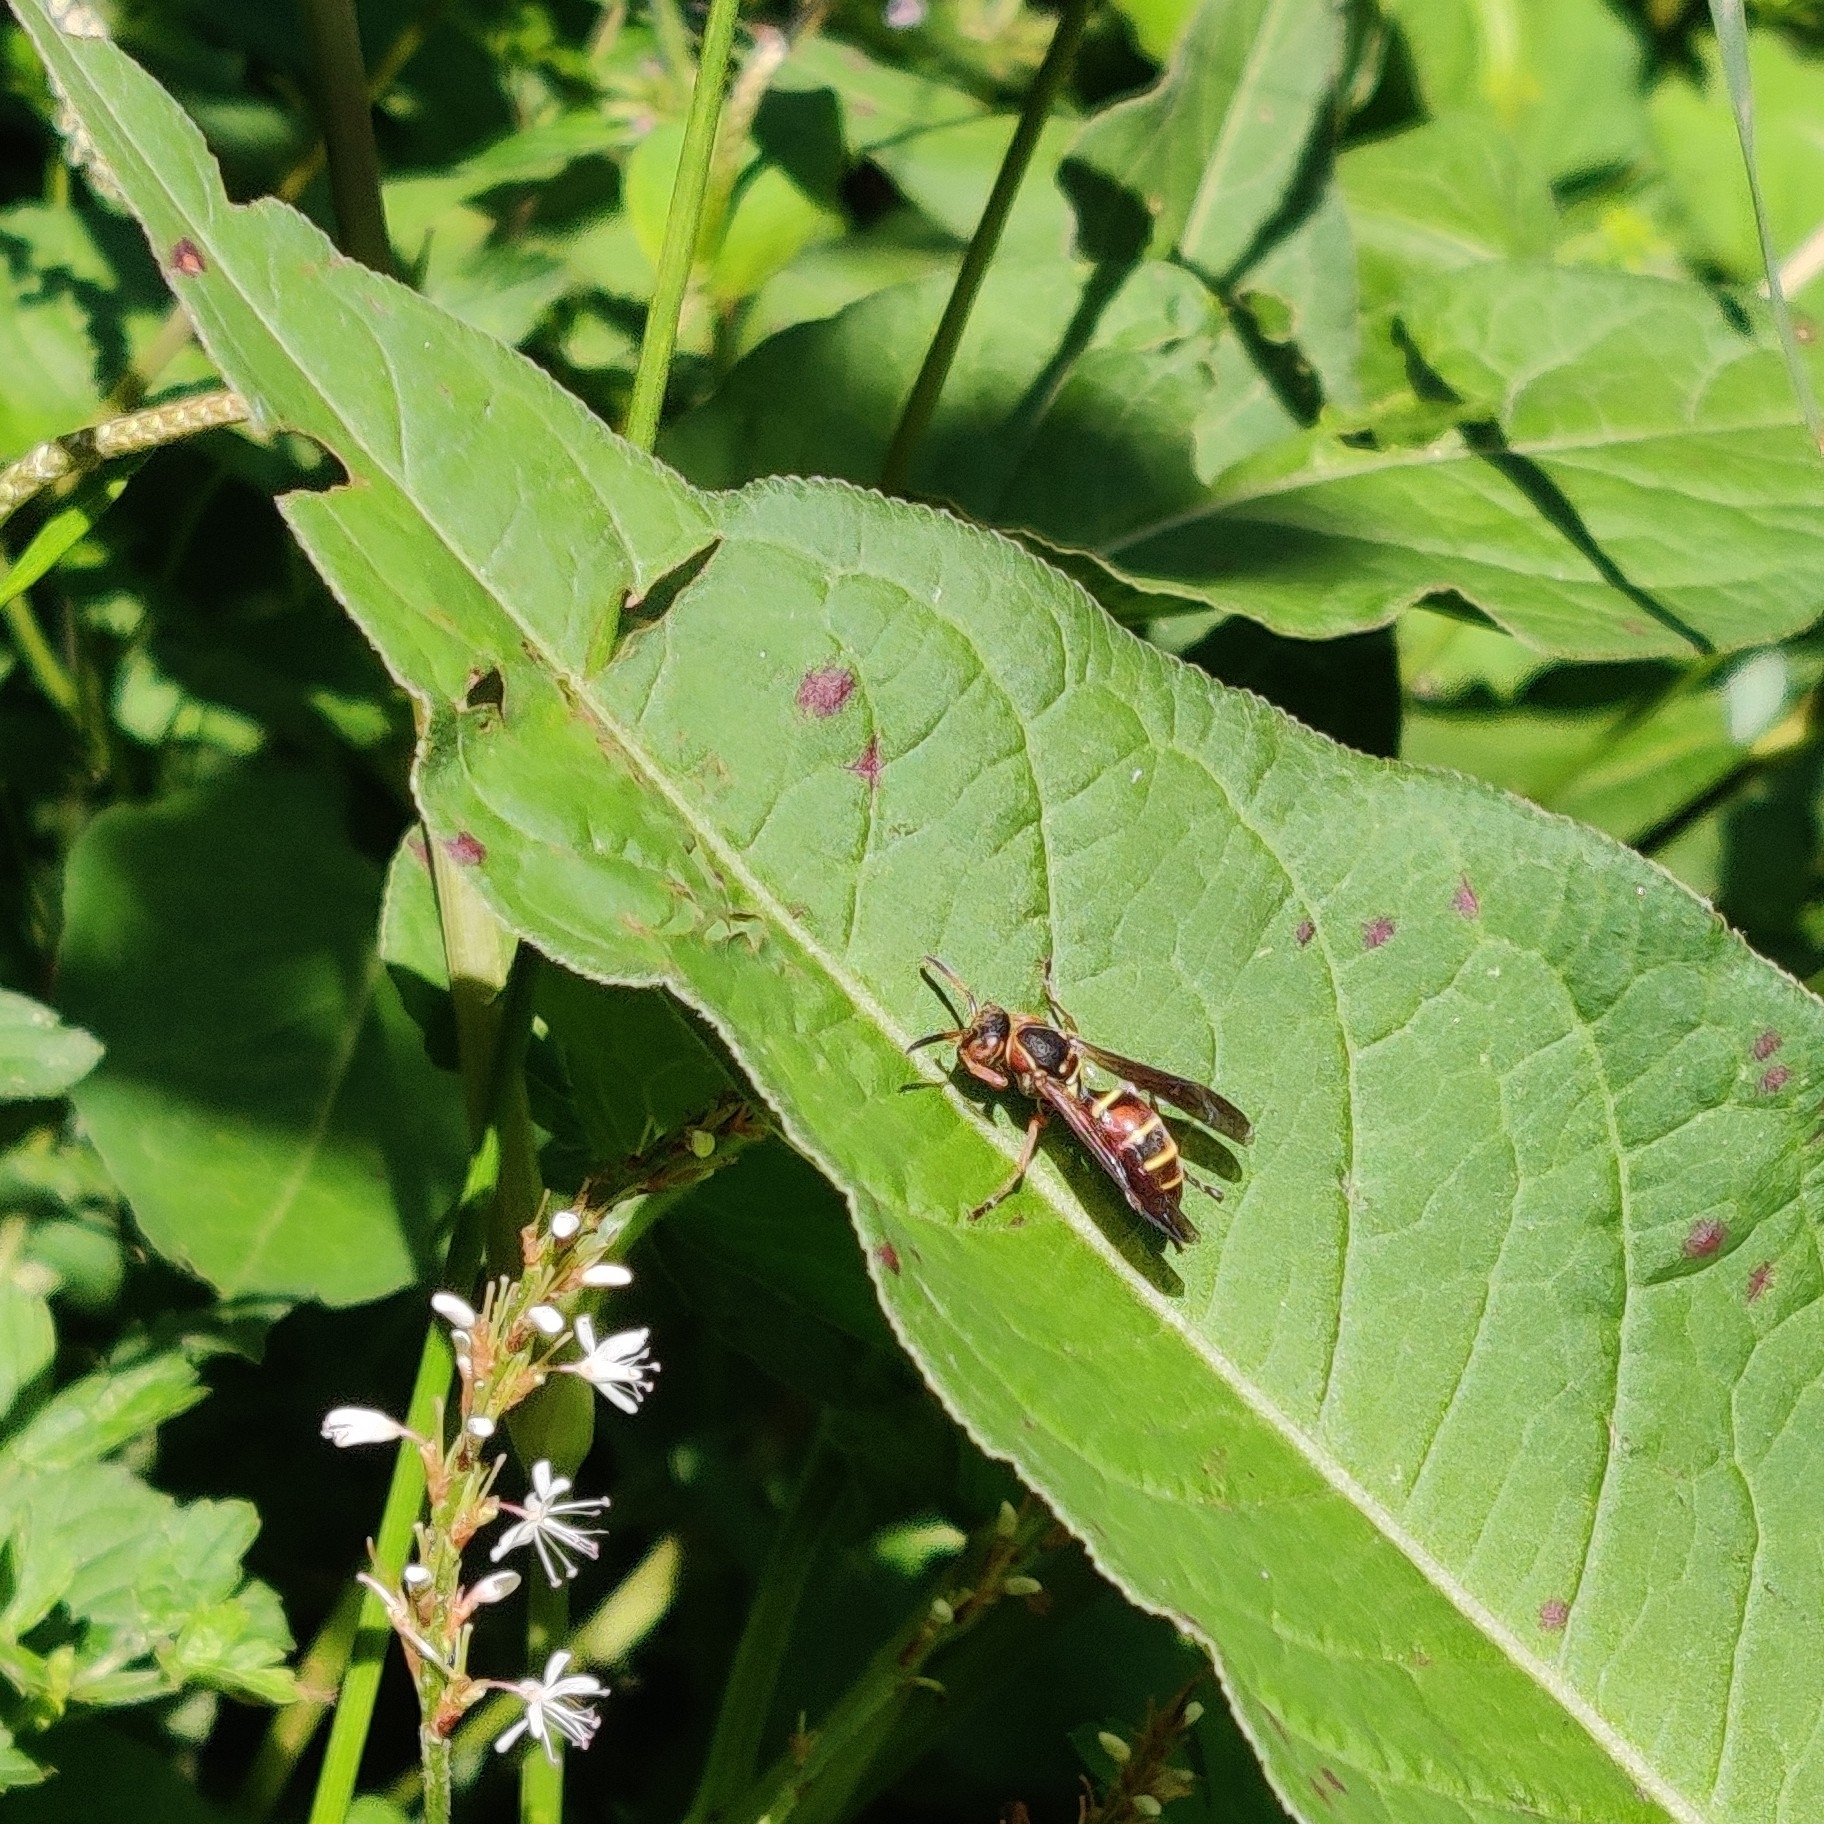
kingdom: Animalia
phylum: Arthropoda
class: Insecta
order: Hymenoptera
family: Eumenidae
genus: Knemodynerus
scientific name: Knemodynerus multimaculatus
